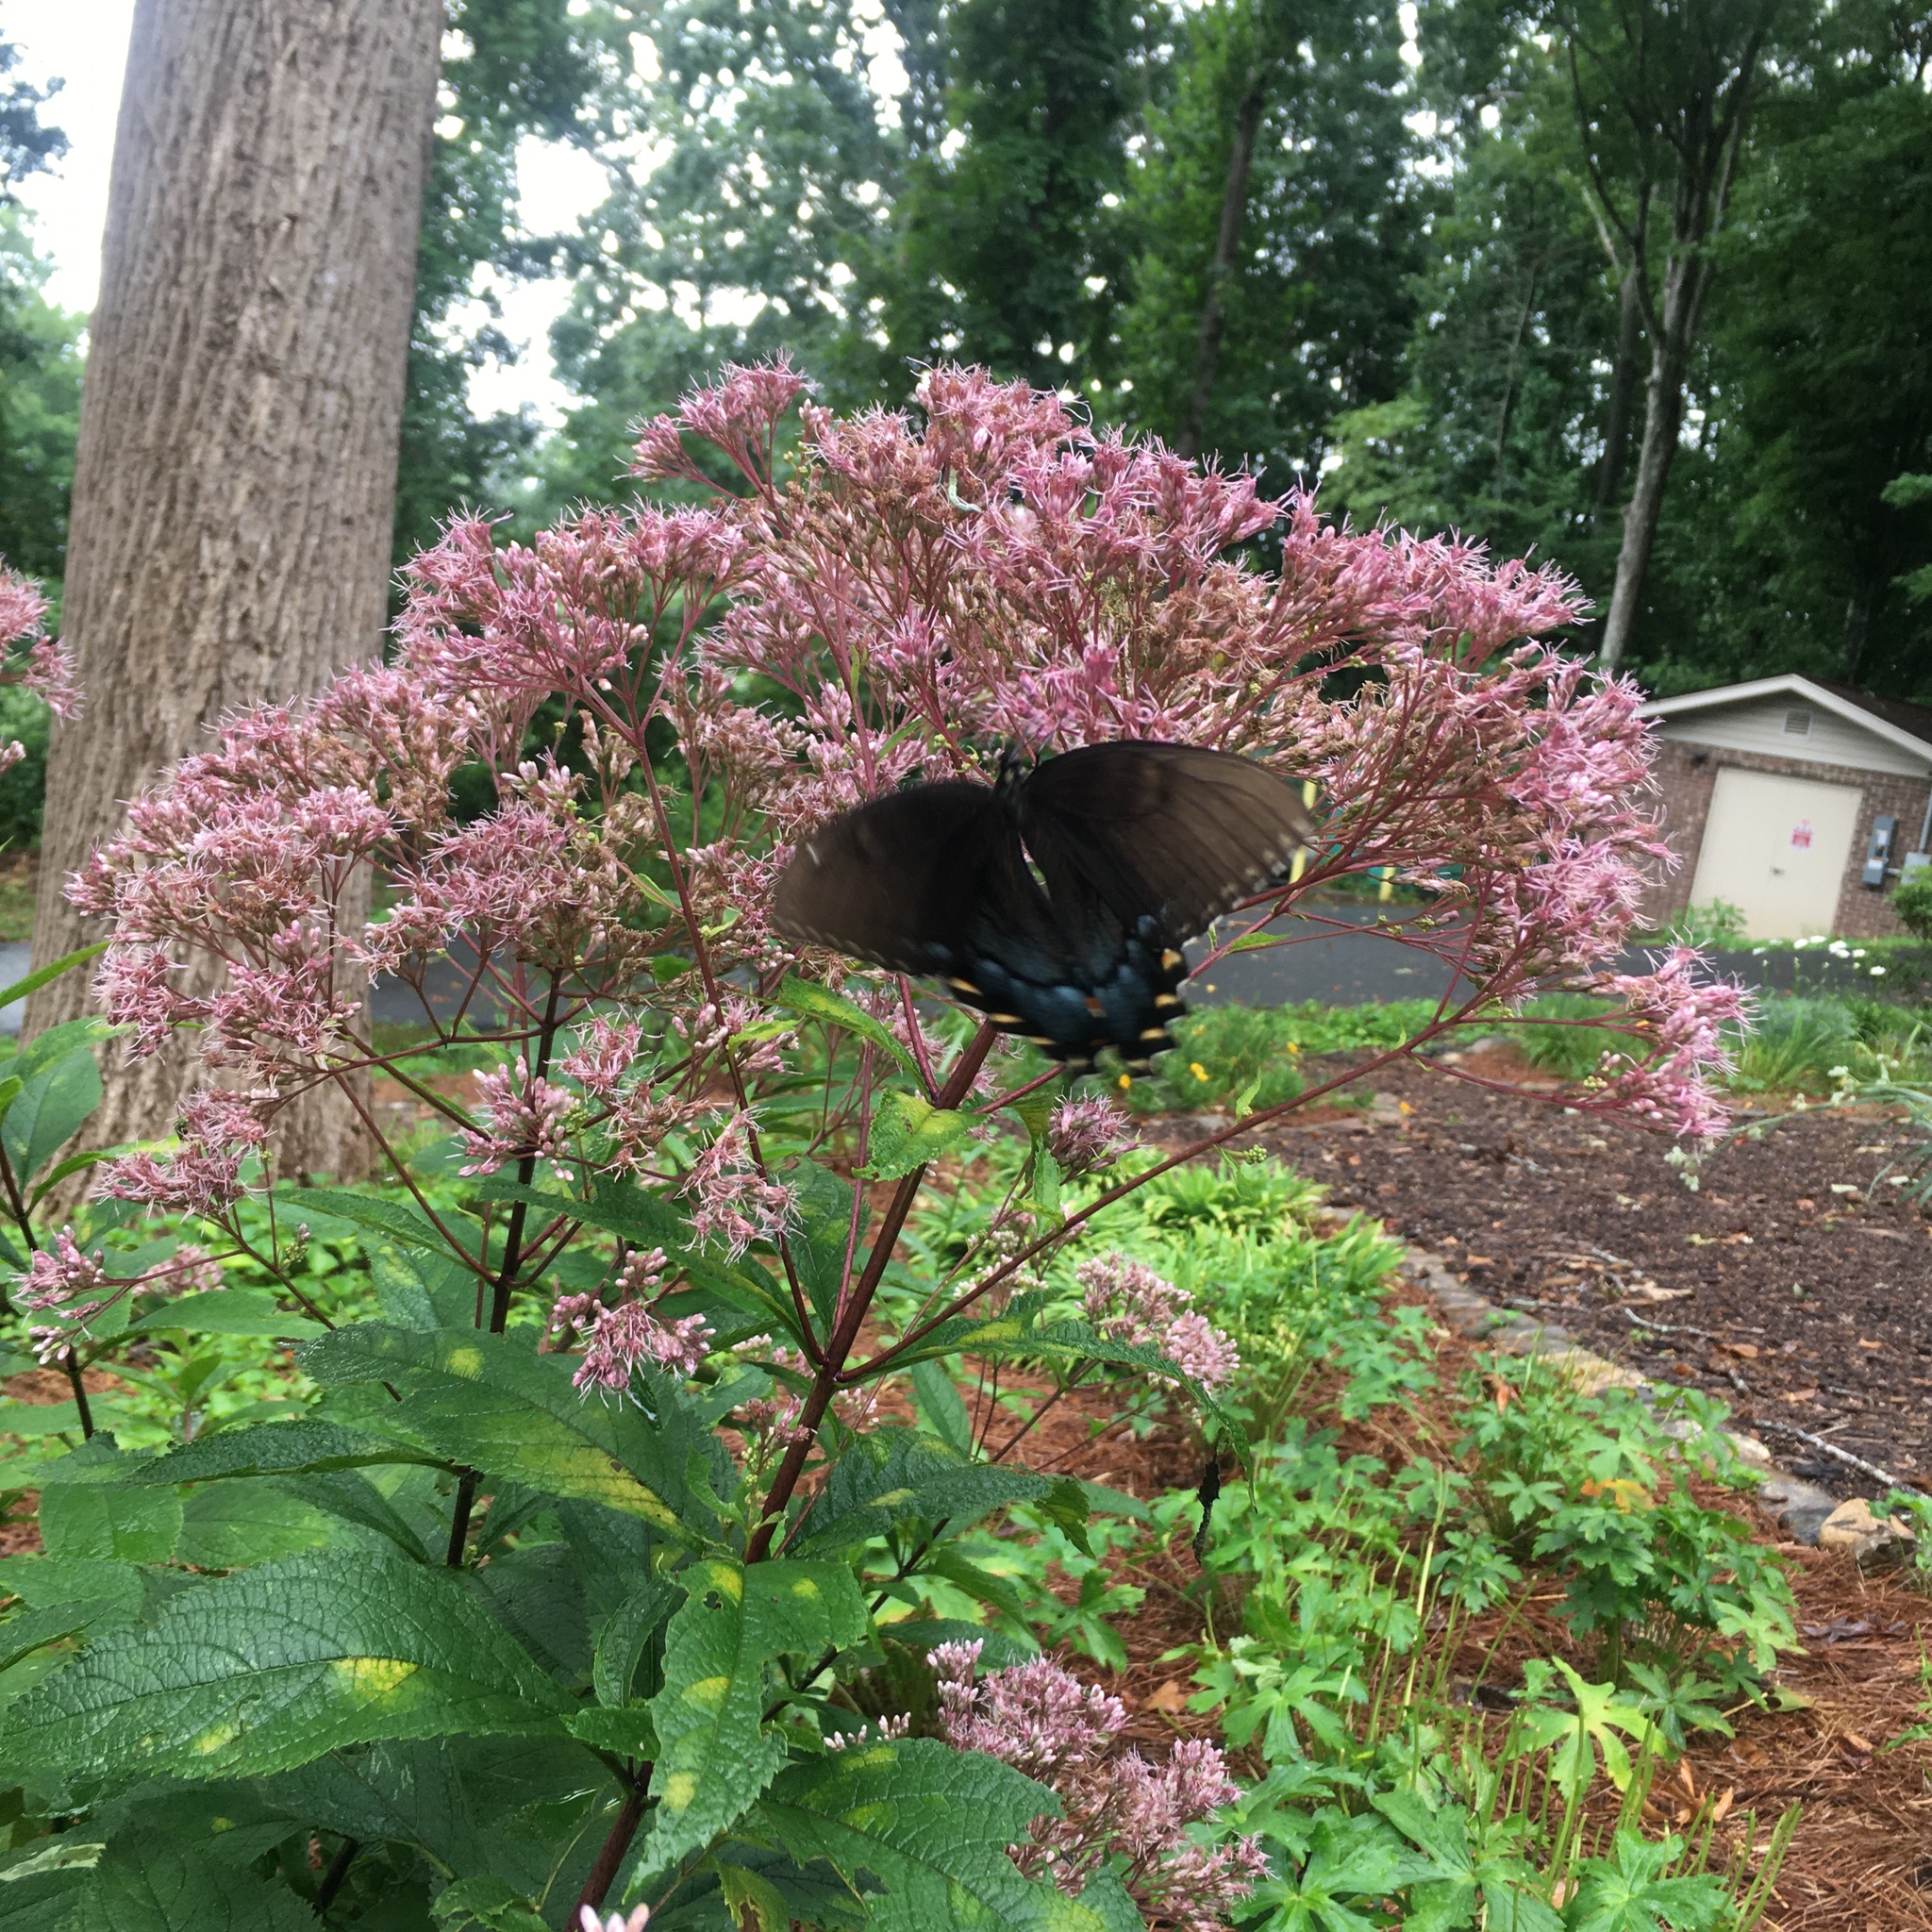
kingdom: Animalia
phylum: Arthropoda
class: Insecta
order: Lepidoptera
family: Papilionidae
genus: Papilio
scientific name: Papilio glaucus
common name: Tiger swallowtail
